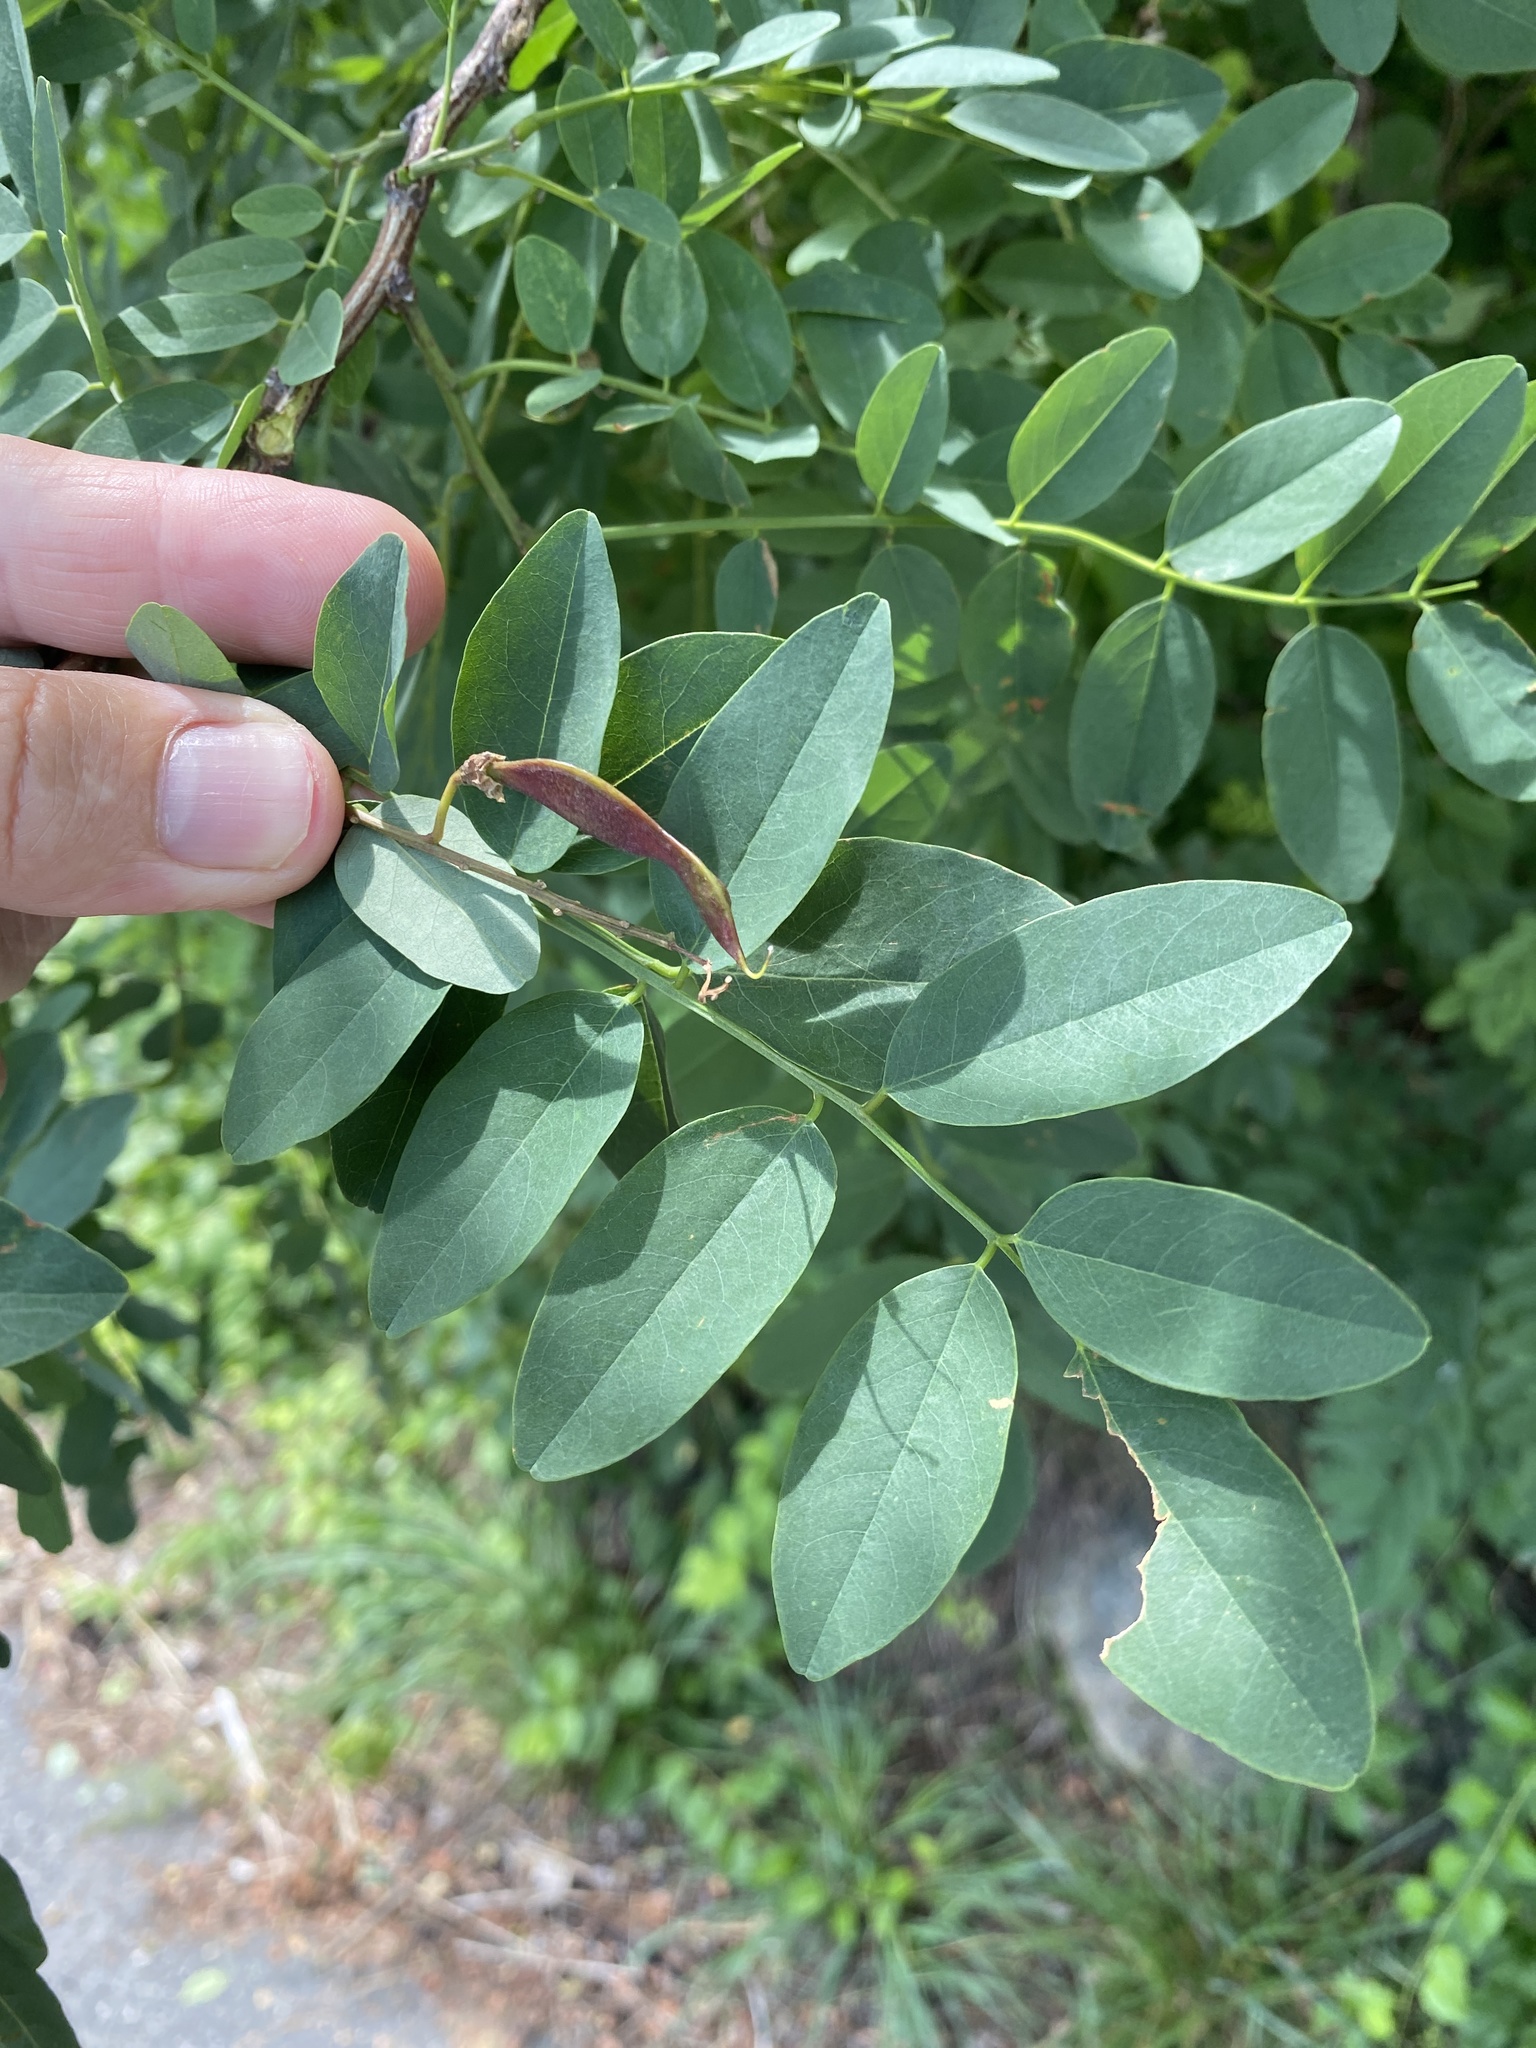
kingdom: Plantae
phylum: Tracheophyta
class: Magnoliopsida
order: Fabales
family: Fabaceae
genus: Robinia
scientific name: Robinia pseudoacacia
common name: Black locust
